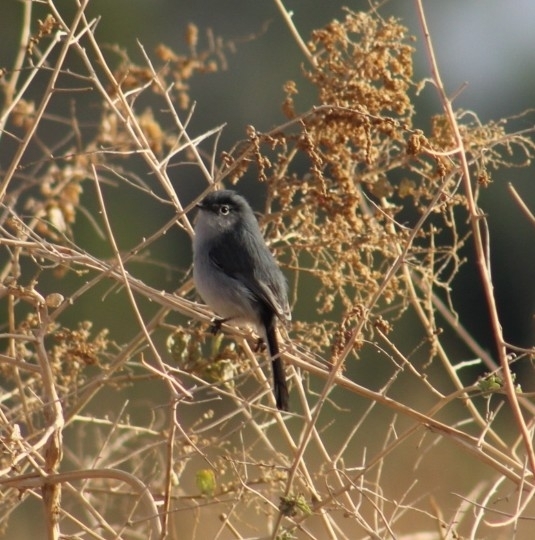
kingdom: Animalia
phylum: Chordata
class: Aves
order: Passeriformes
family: Polioptilidae
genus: Polioptila
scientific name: Polioptila caerulea
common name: Blue-gray gnatcatcher
